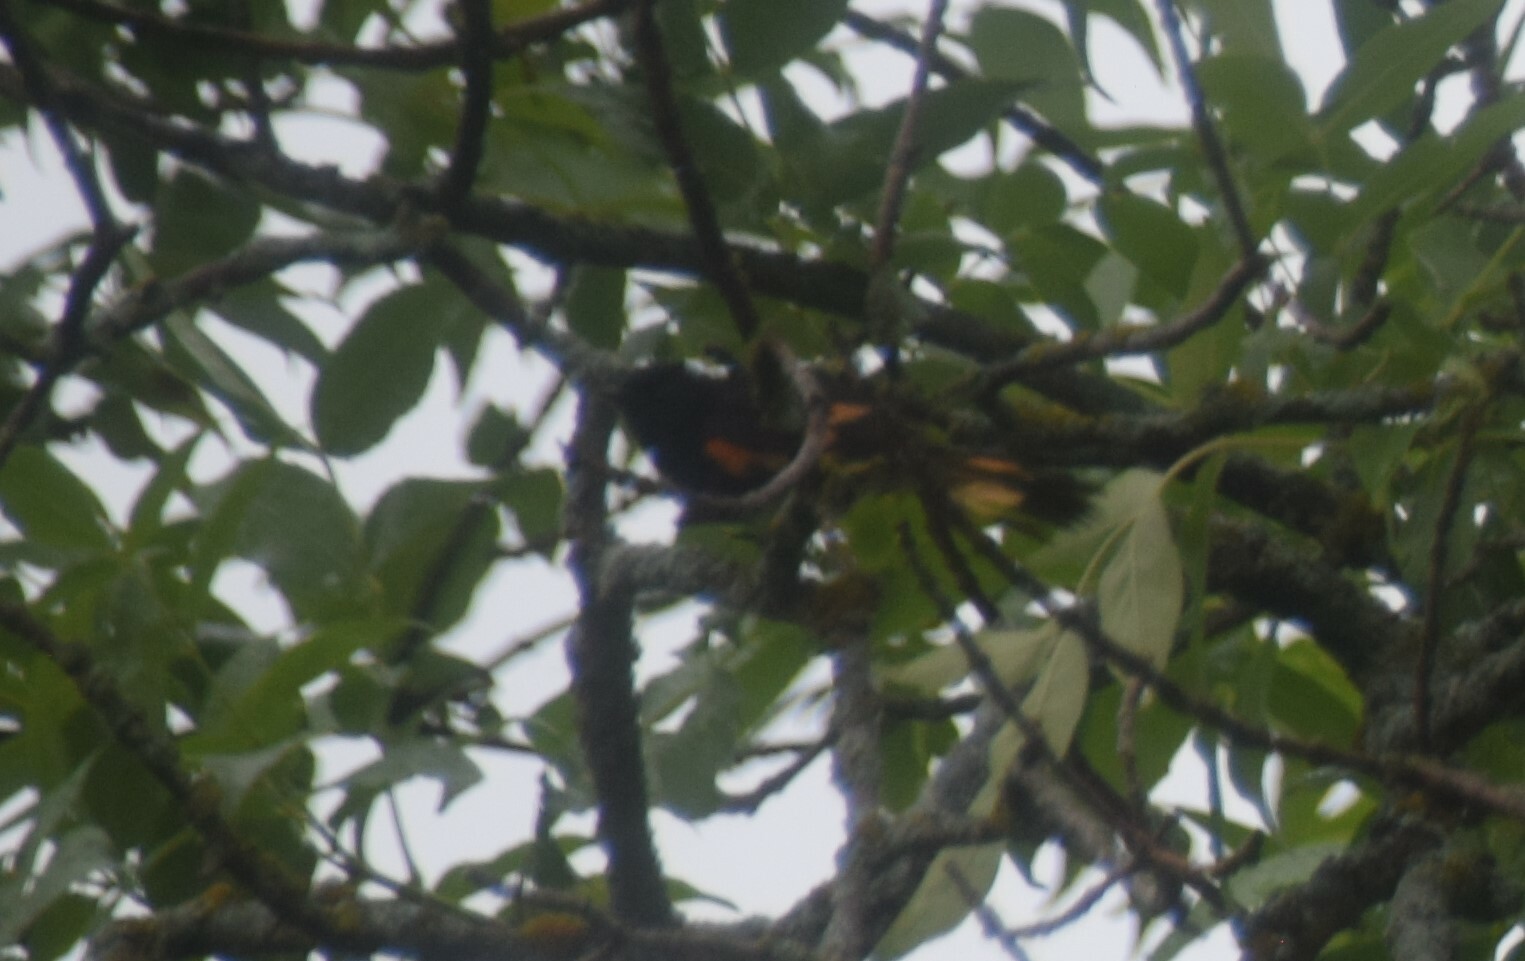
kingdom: Animalia
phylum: Chordata
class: Aves
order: Passeriformes
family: Parulidae
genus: Setophaga
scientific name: Setophaga ruticilla
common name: American redstart
